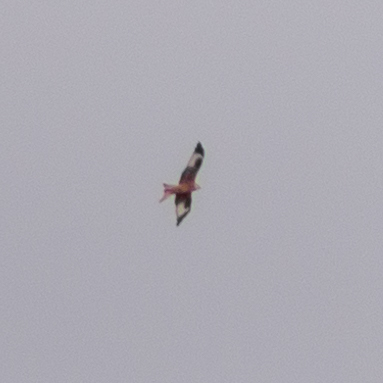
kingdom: Animalia
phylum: Chordata
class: Aves
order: Accipitriformes
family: Accipitridae
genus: Milvus
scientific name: Milvus milvus
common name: Red kite
